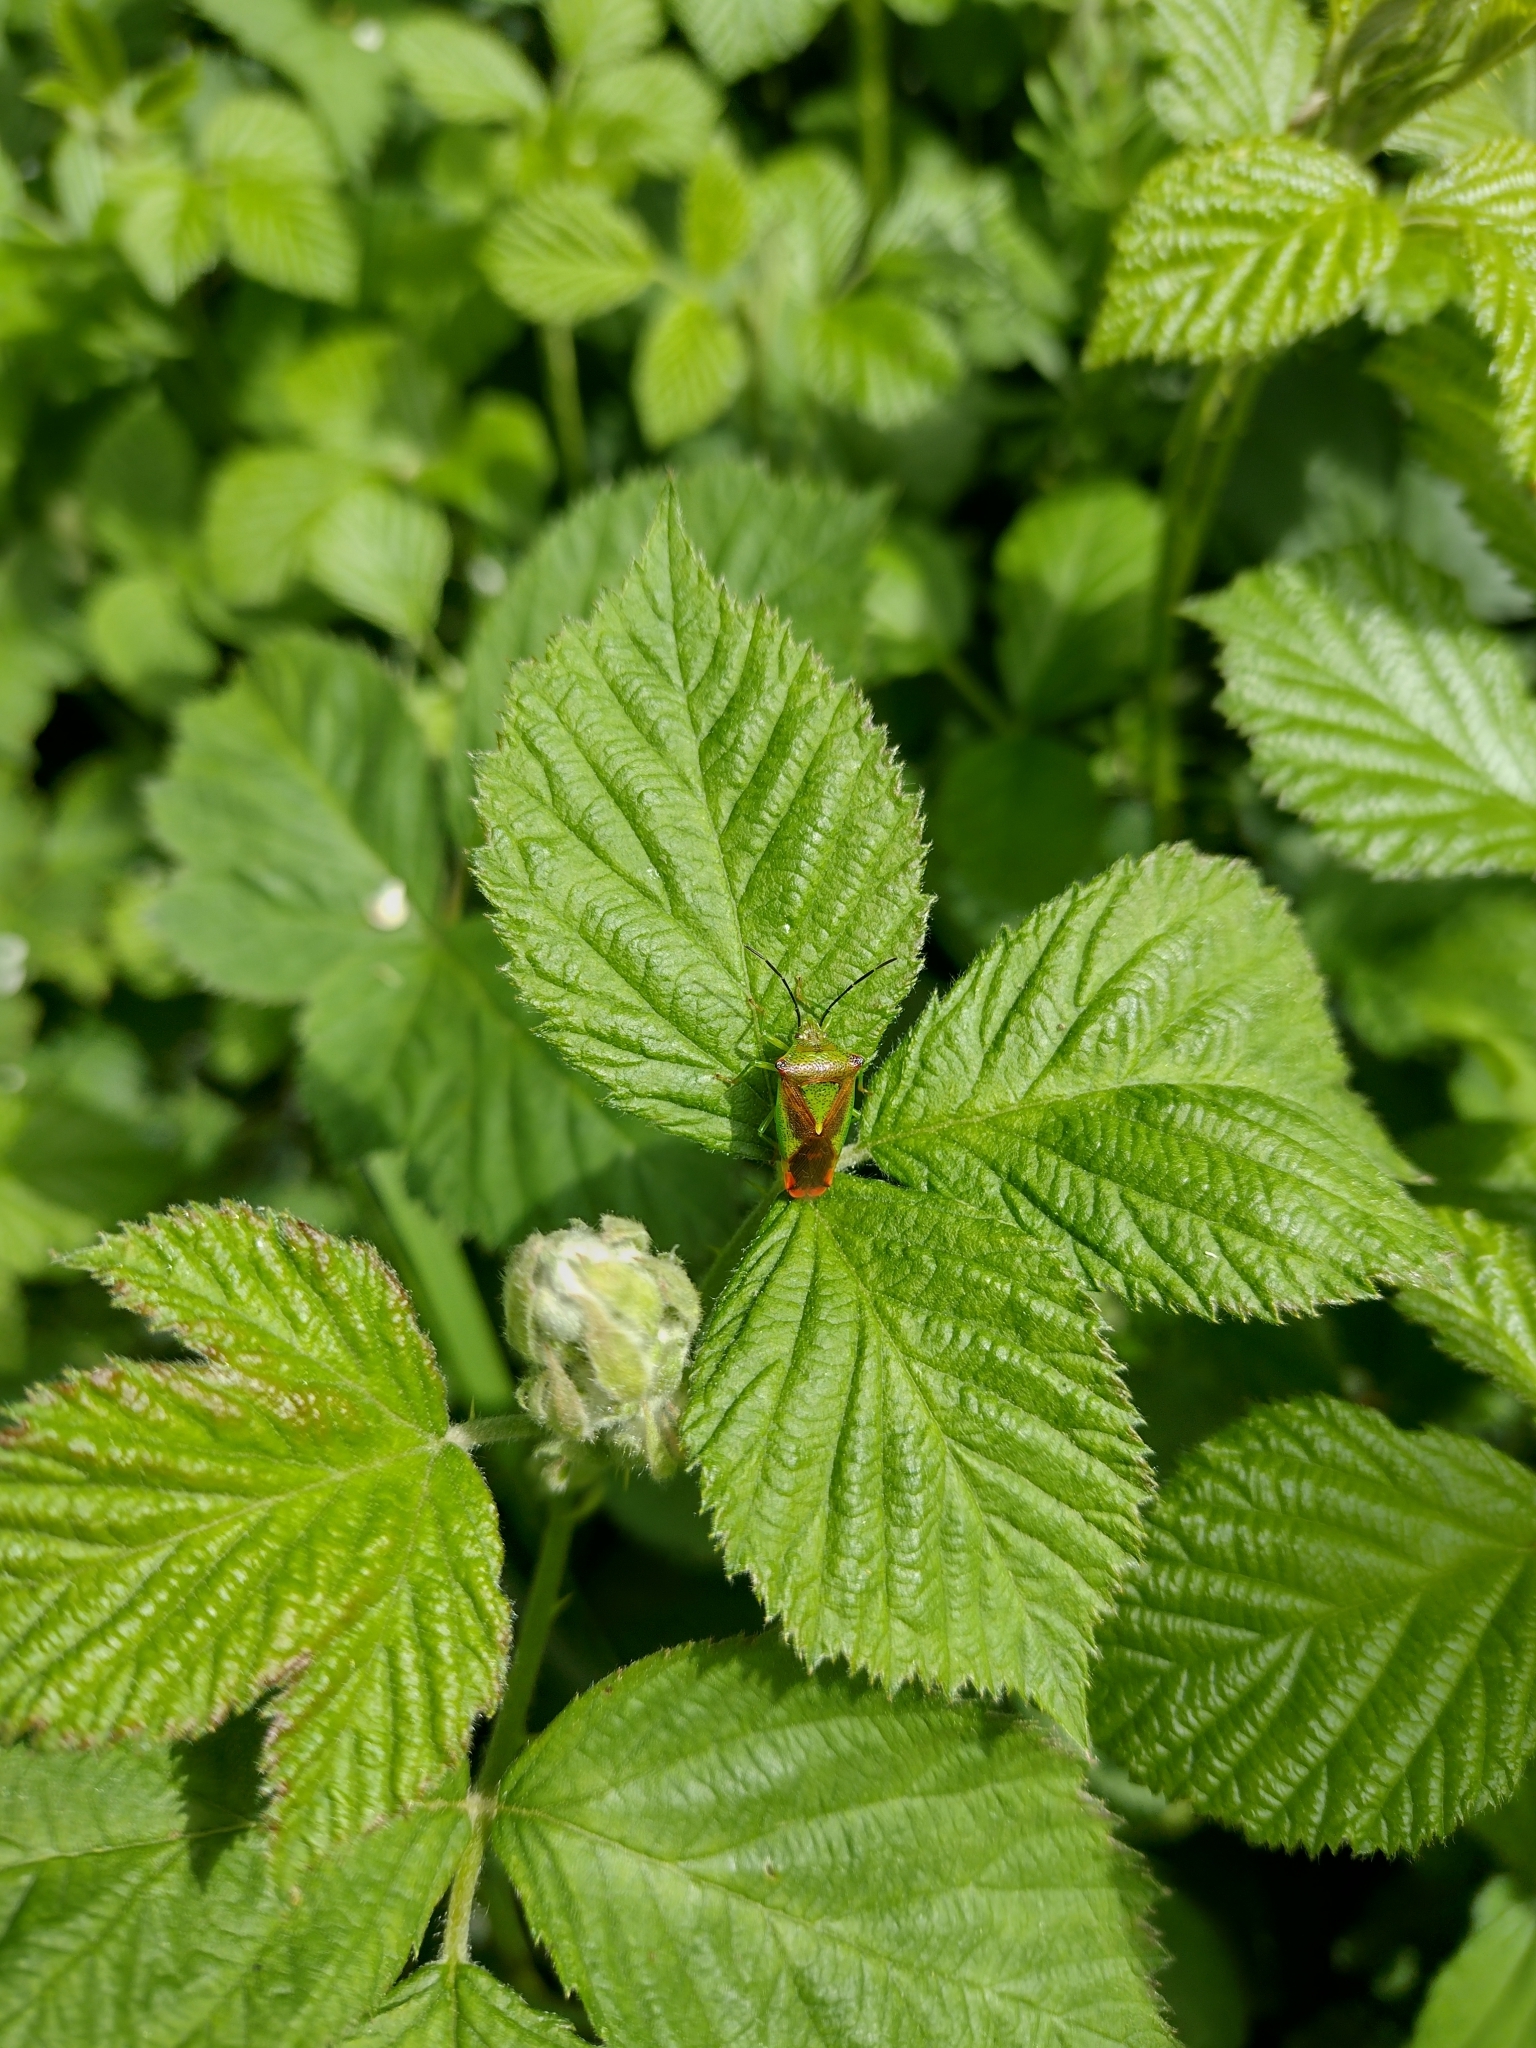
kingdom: Animalia
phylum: Arthropoda
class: Insecta
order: Hemiptera
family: Acanthosomatidae
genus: Acanthosoma
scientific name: Acanthosoma haemorrhoidale
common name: Hawthorn shieldbug
